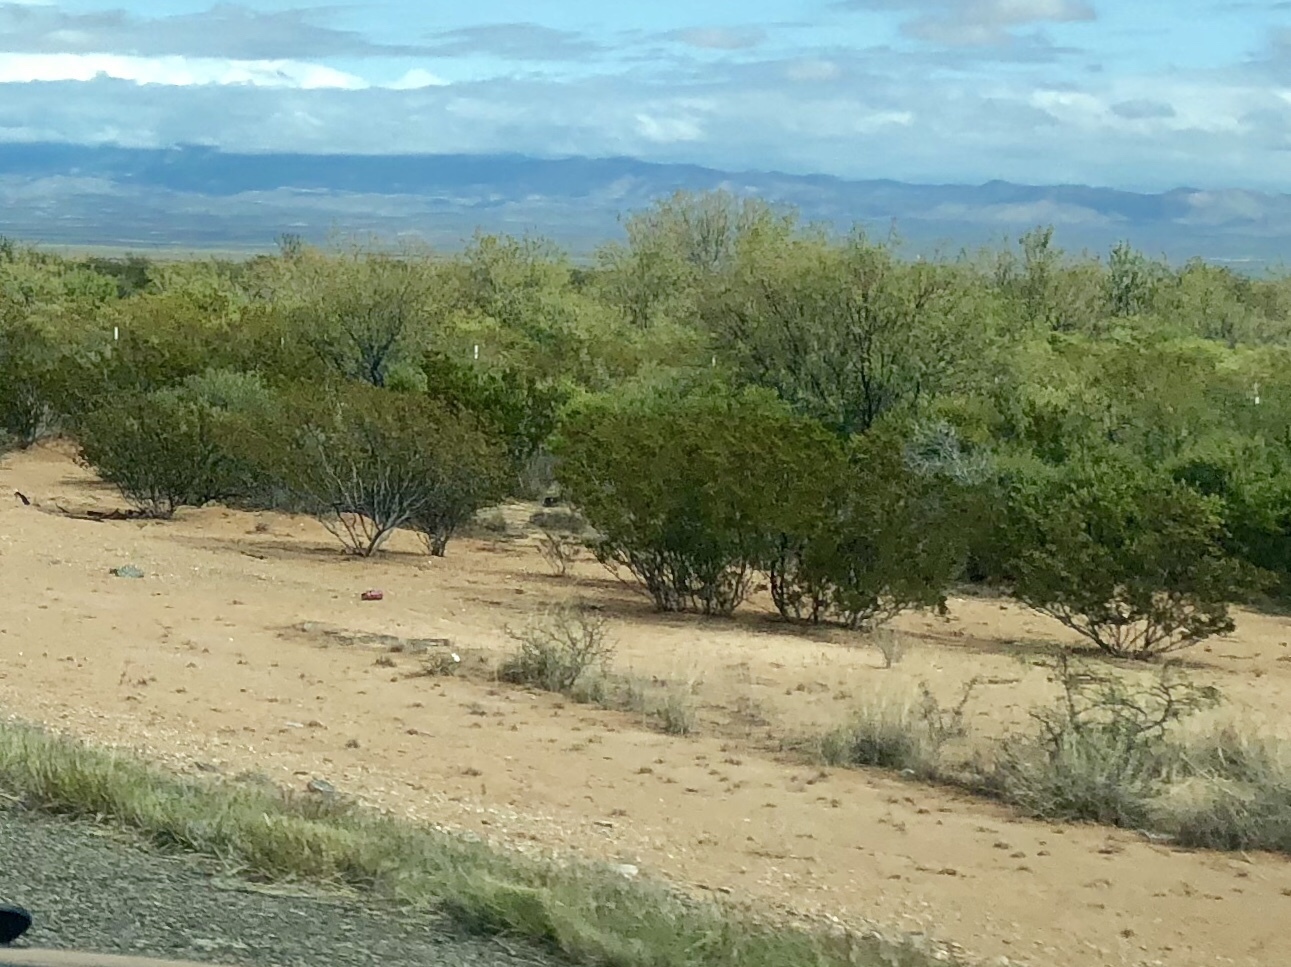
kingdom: Plantae
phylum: Tracheophyta
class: Magnoliopsida
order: Zygophyllales
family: Zygophyllaceae
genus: Larrea
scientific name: Larrea tridentata
